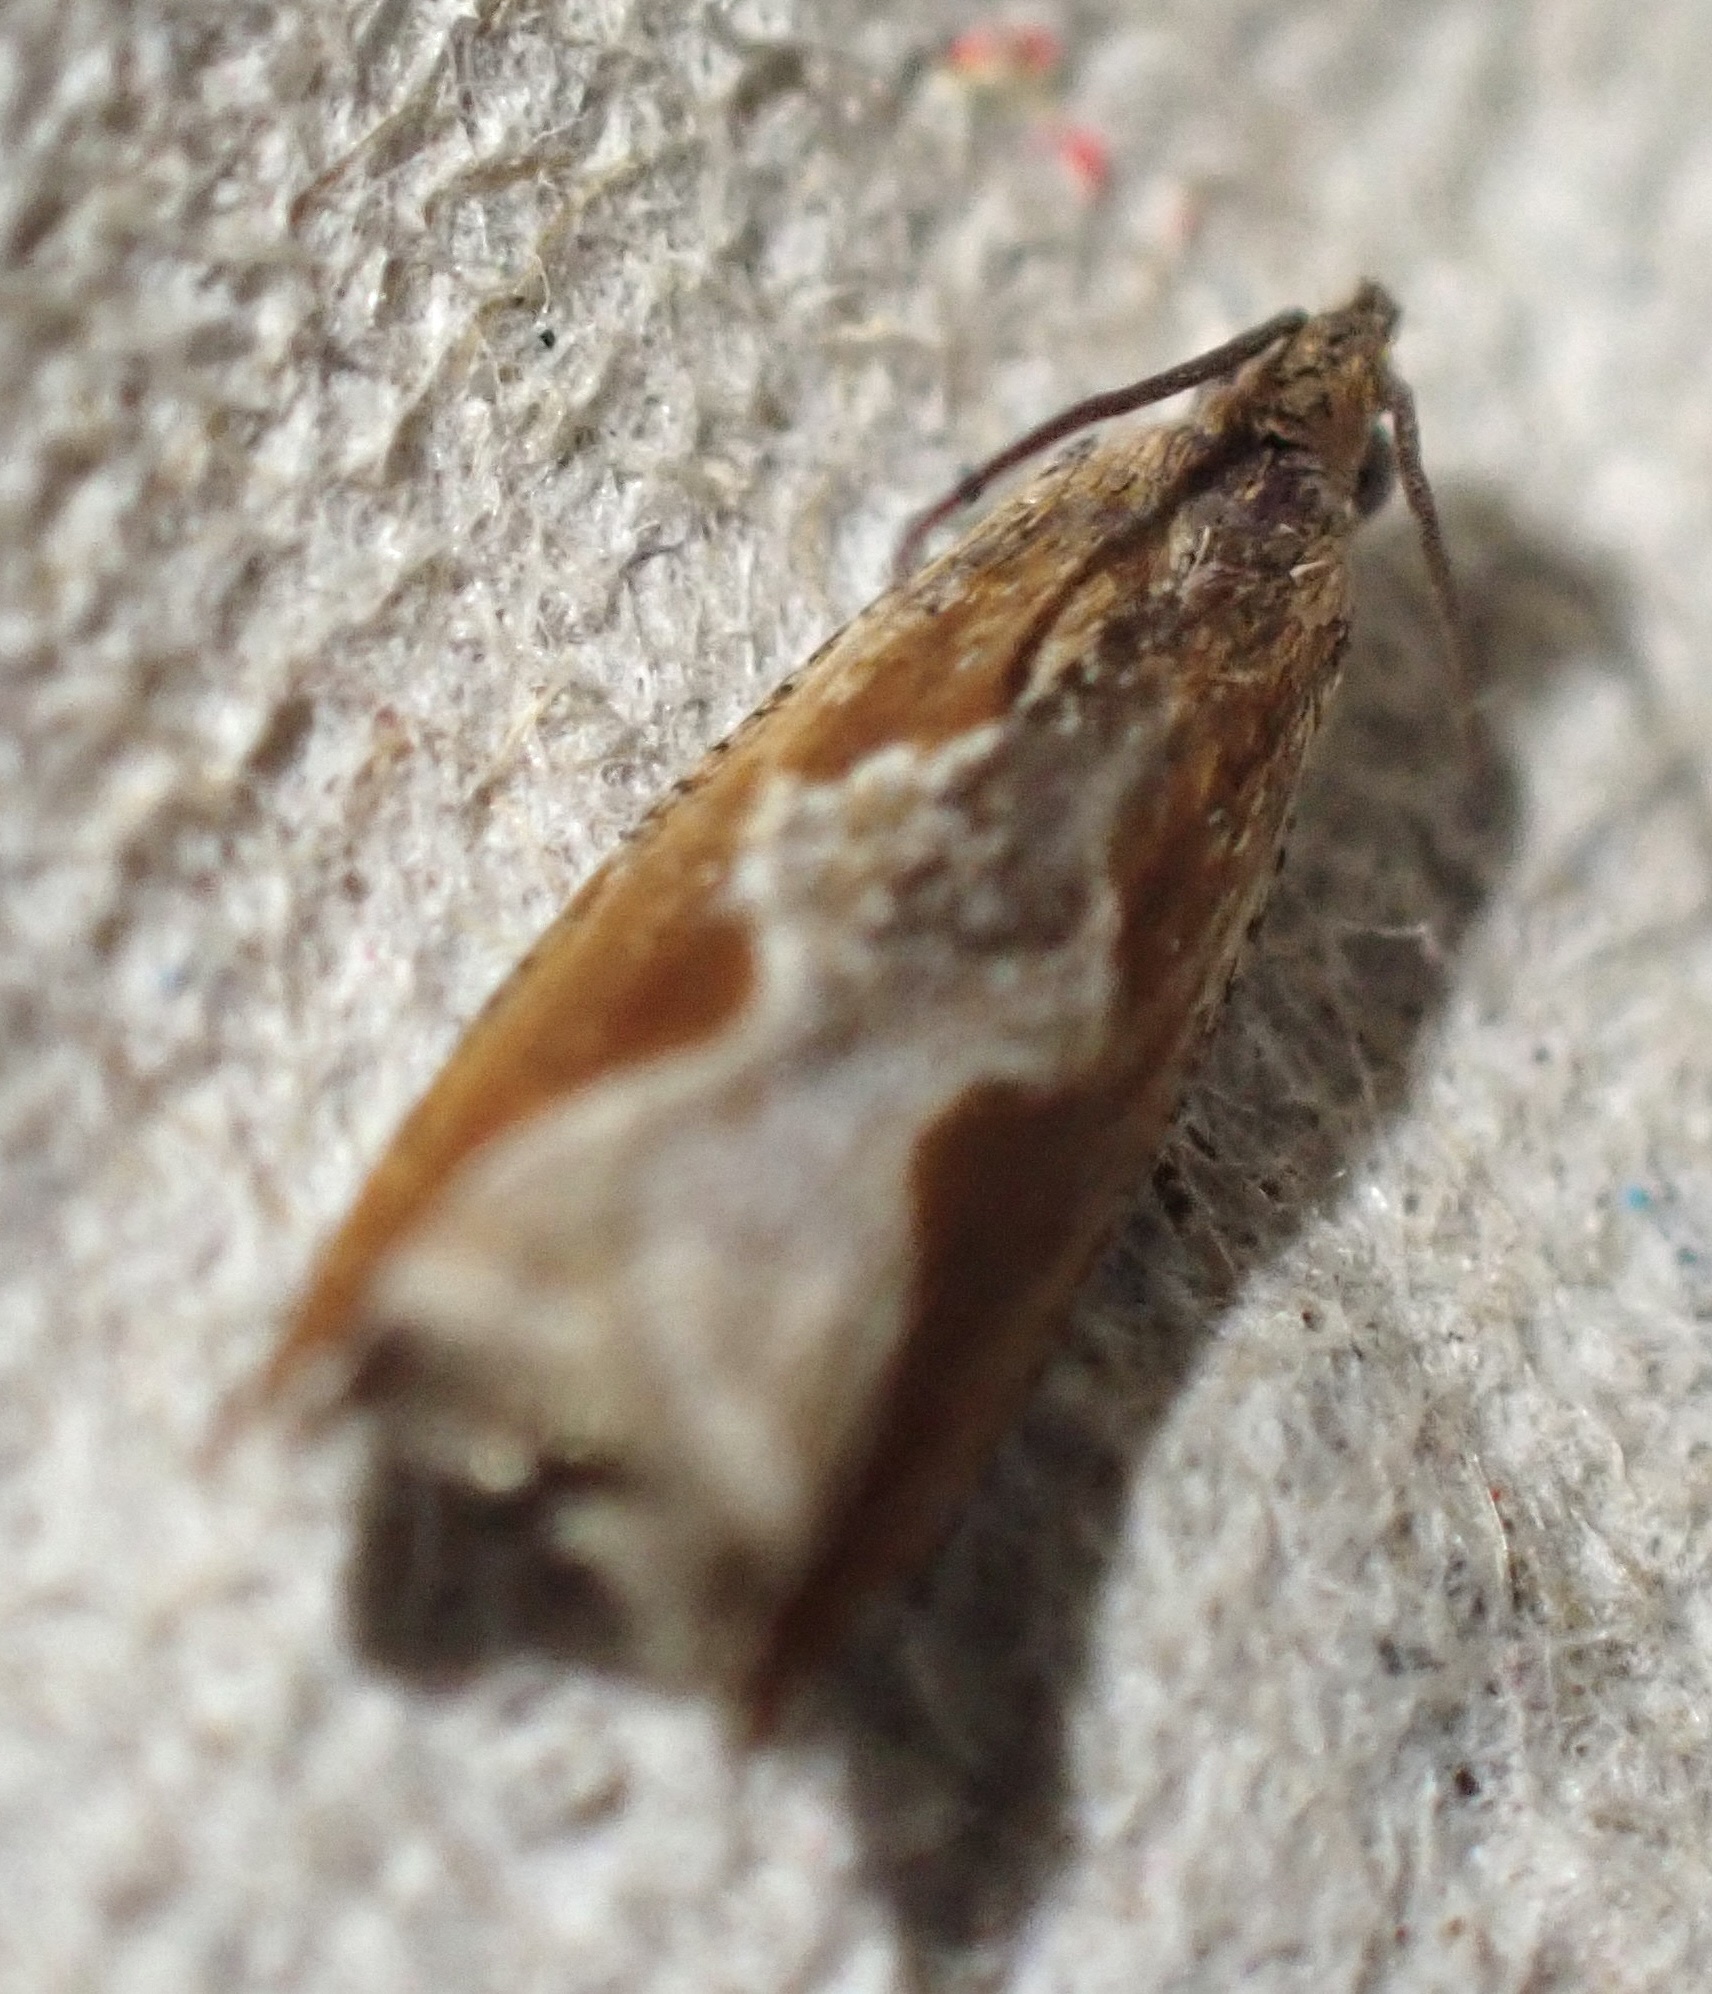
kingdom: Animalia
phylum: Arthropoda
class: Insecta
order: Lepidoptera
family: Tortricidae
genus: Ancylis
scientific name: Ancylis diminuatana
